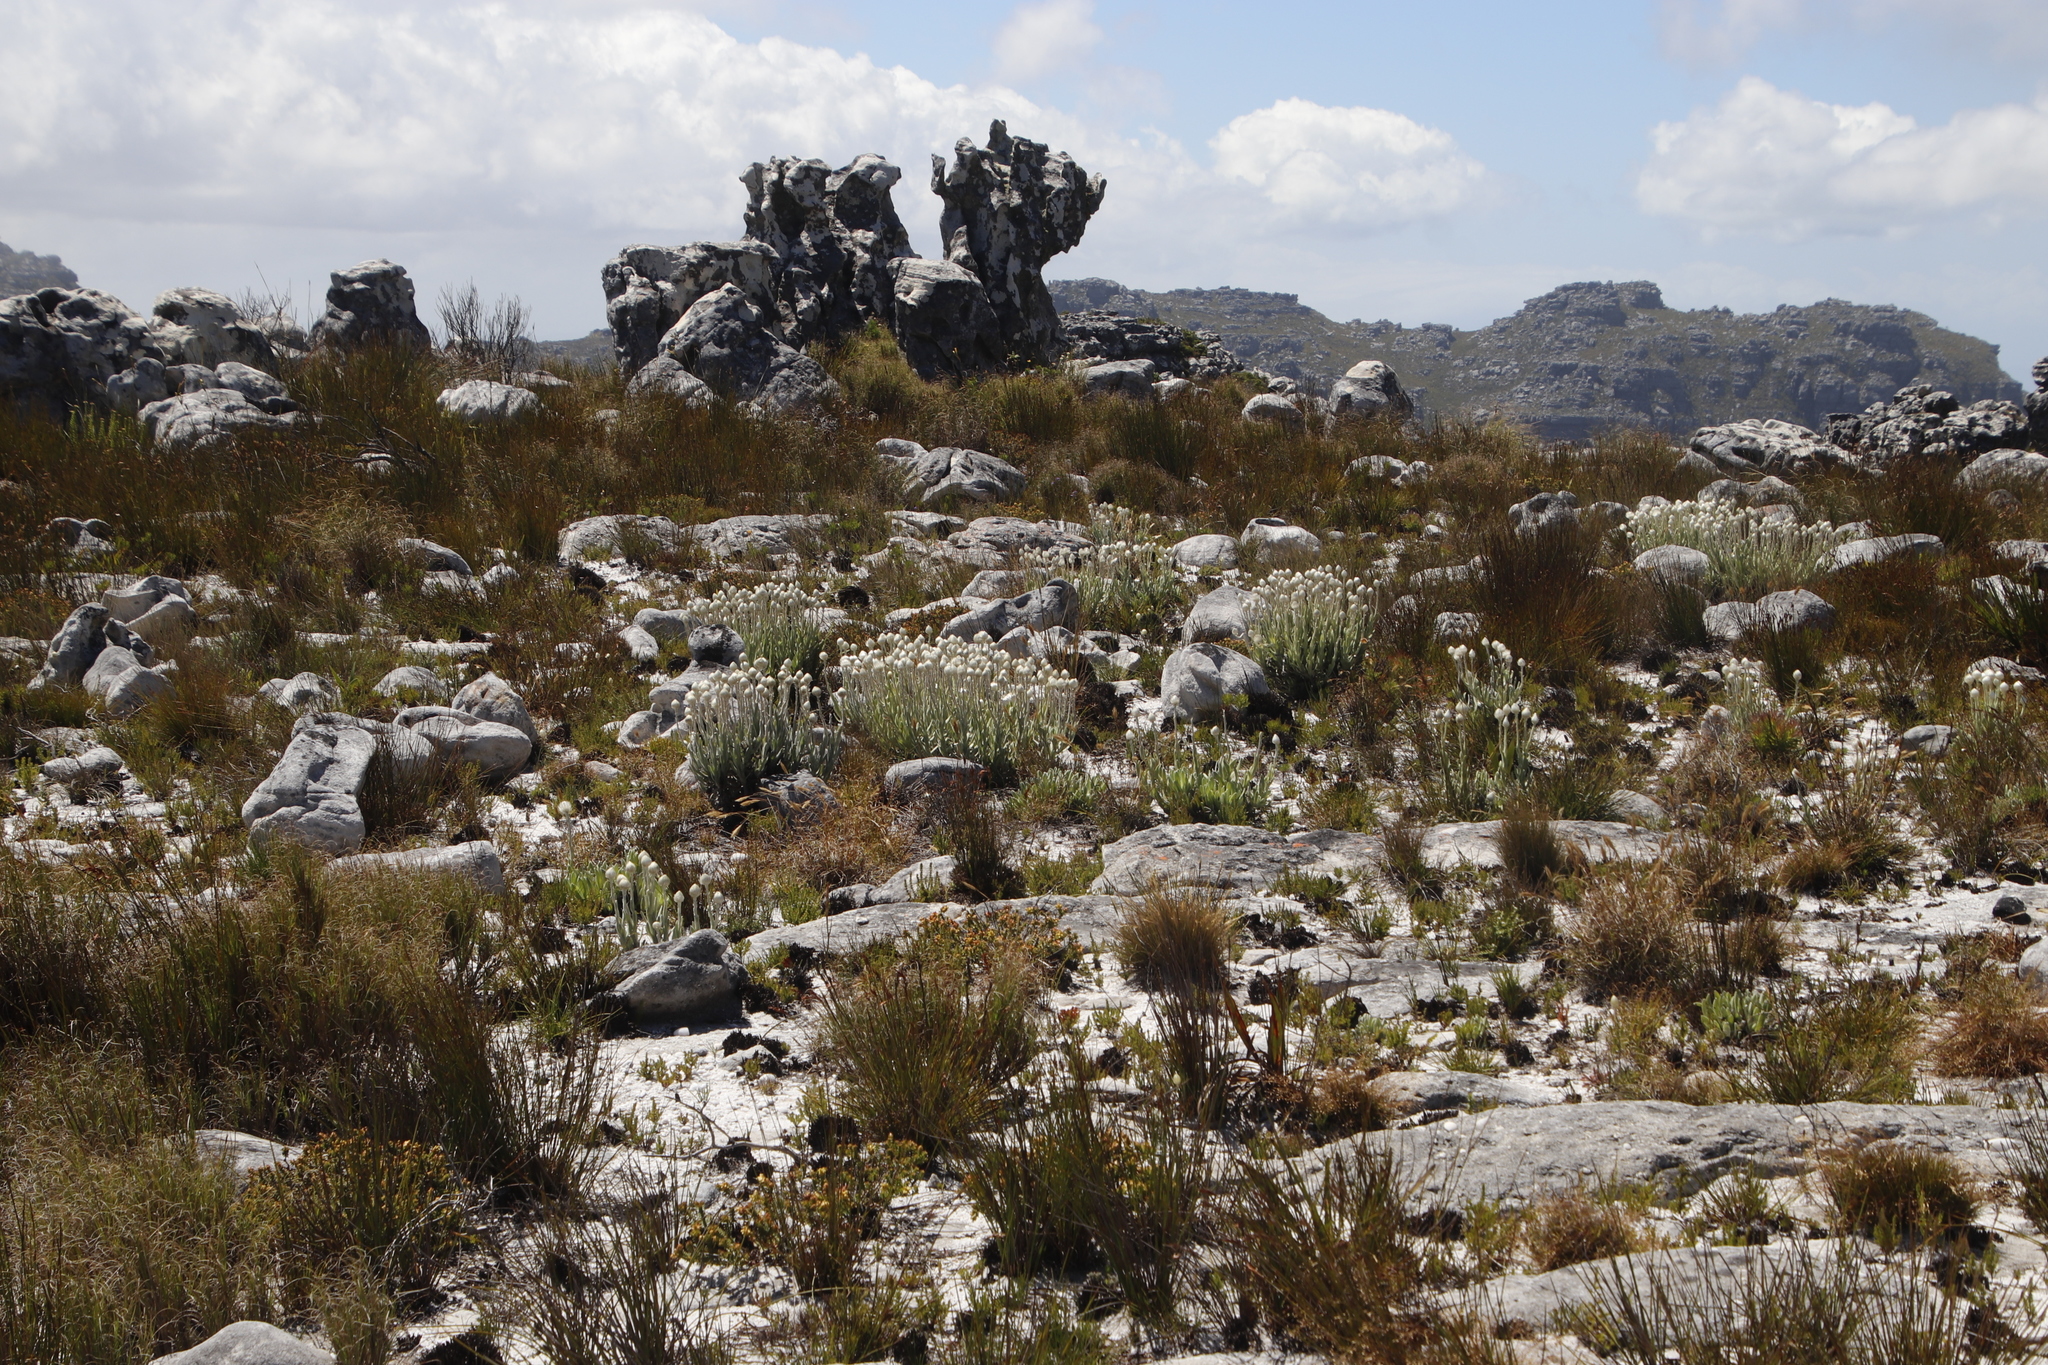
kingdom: Plantae
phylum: Tracheophyta
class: Magnoliopsida
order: Asterales
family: Asteraceae
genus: Syncarpha
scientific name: Syncarpha vestita
